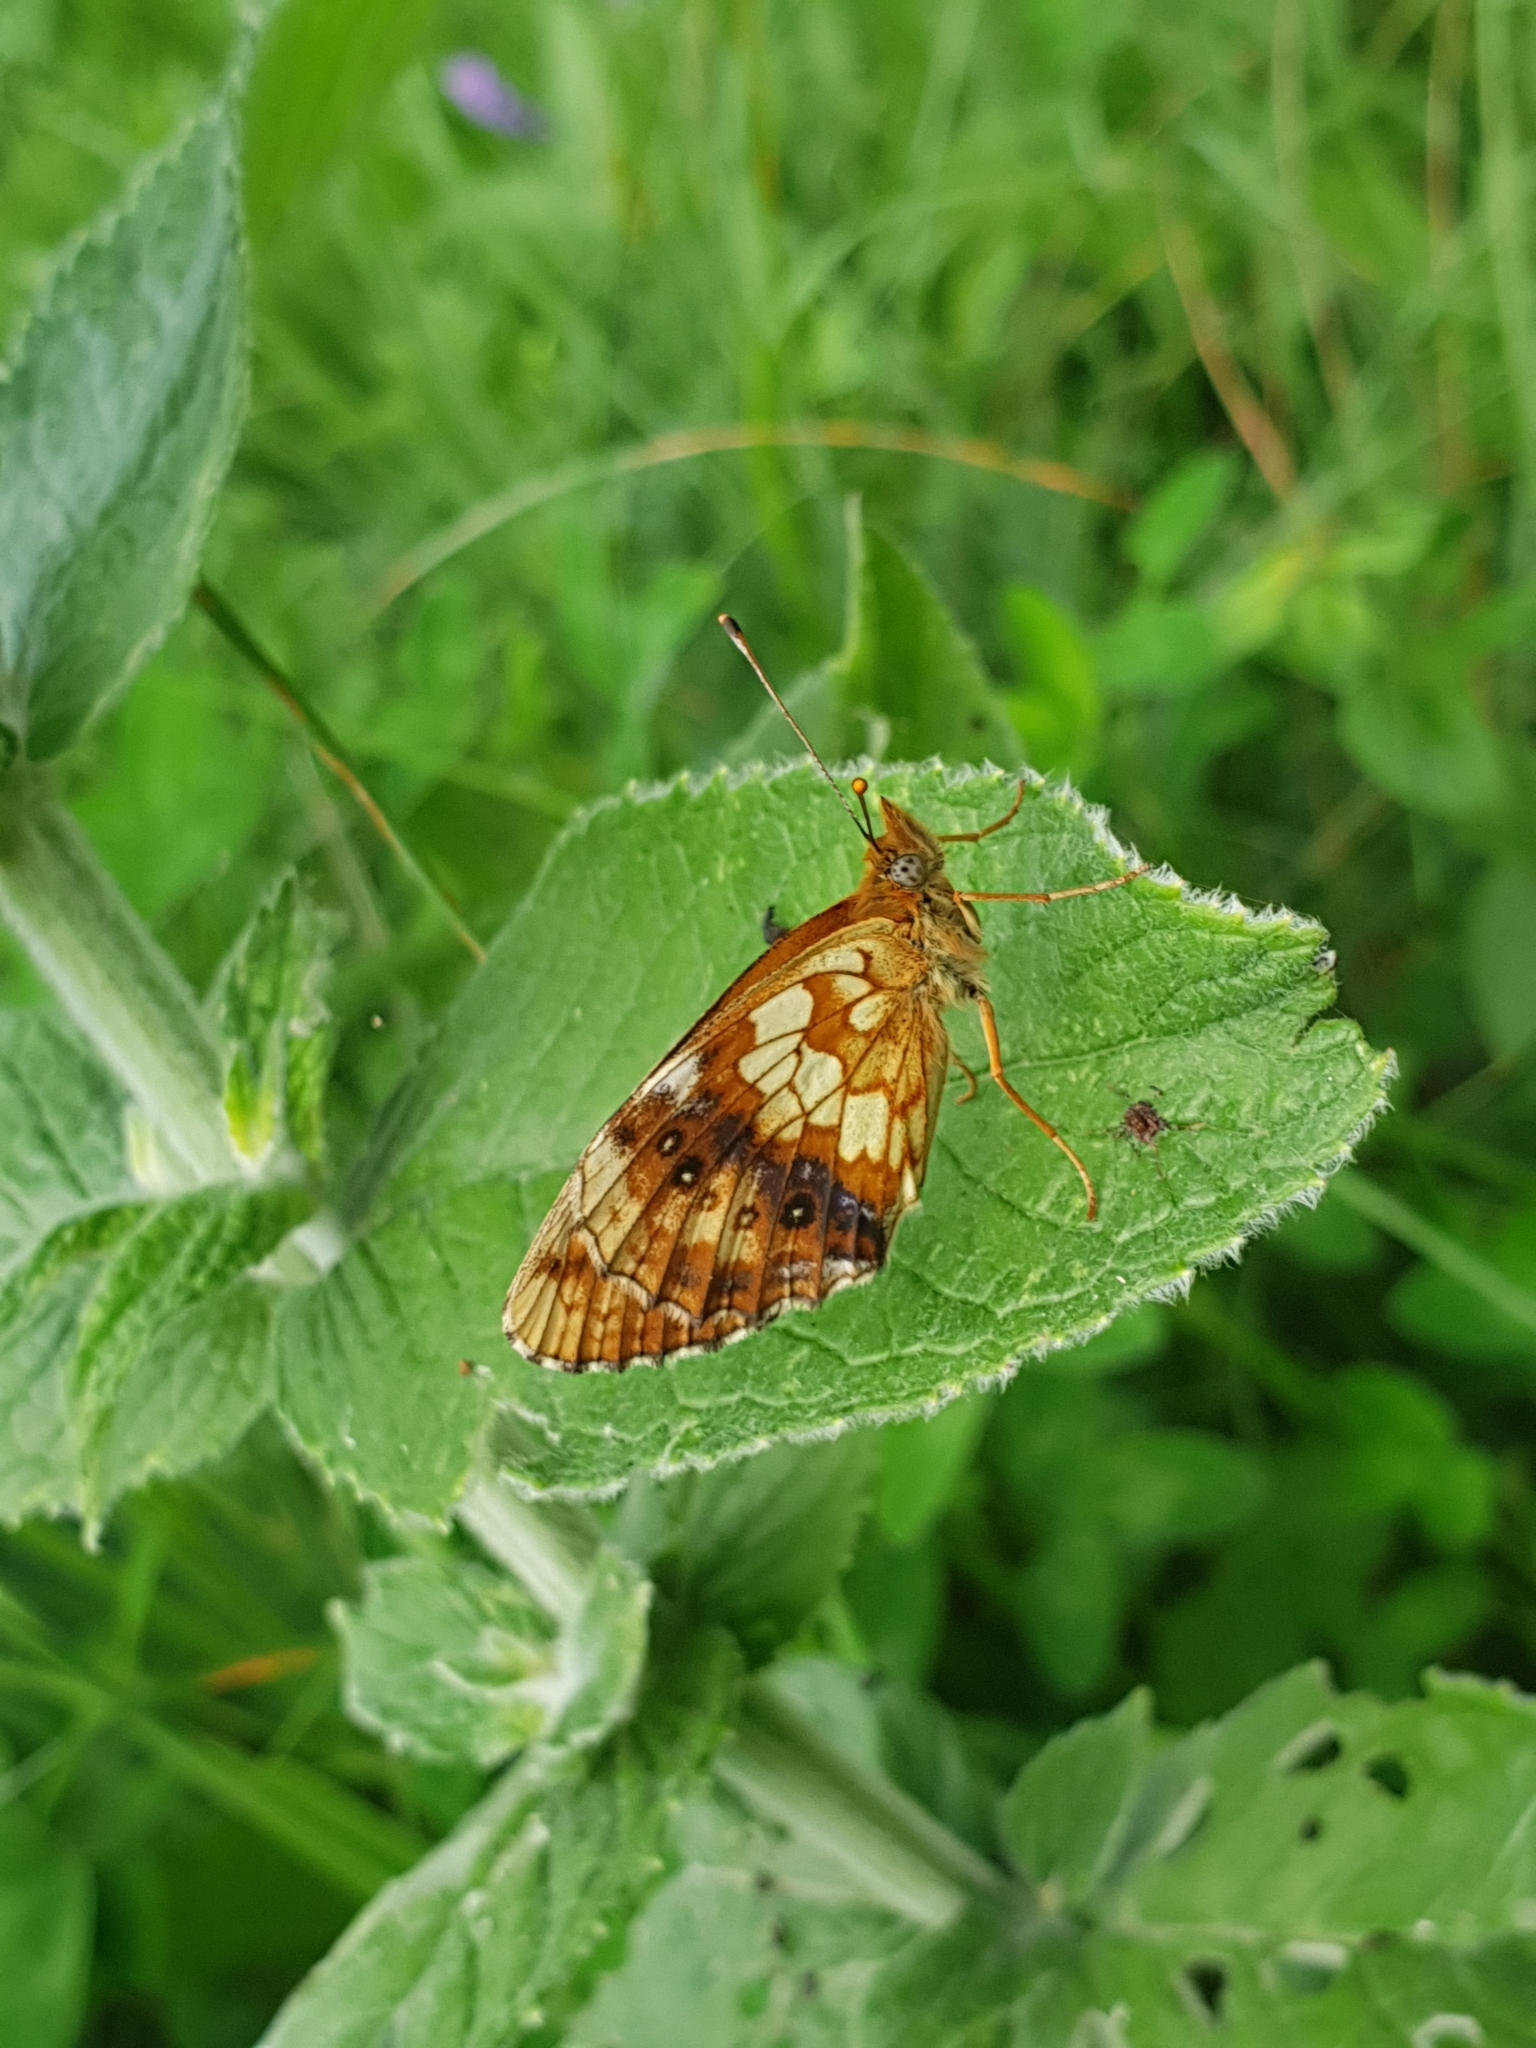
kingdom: Animalia
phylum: Arthropoda
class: Insecta
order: Lepidoptera
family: Nymphalidae
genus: Brenthis
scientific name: Brenthis ino
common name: Lesser marbled fritillary
